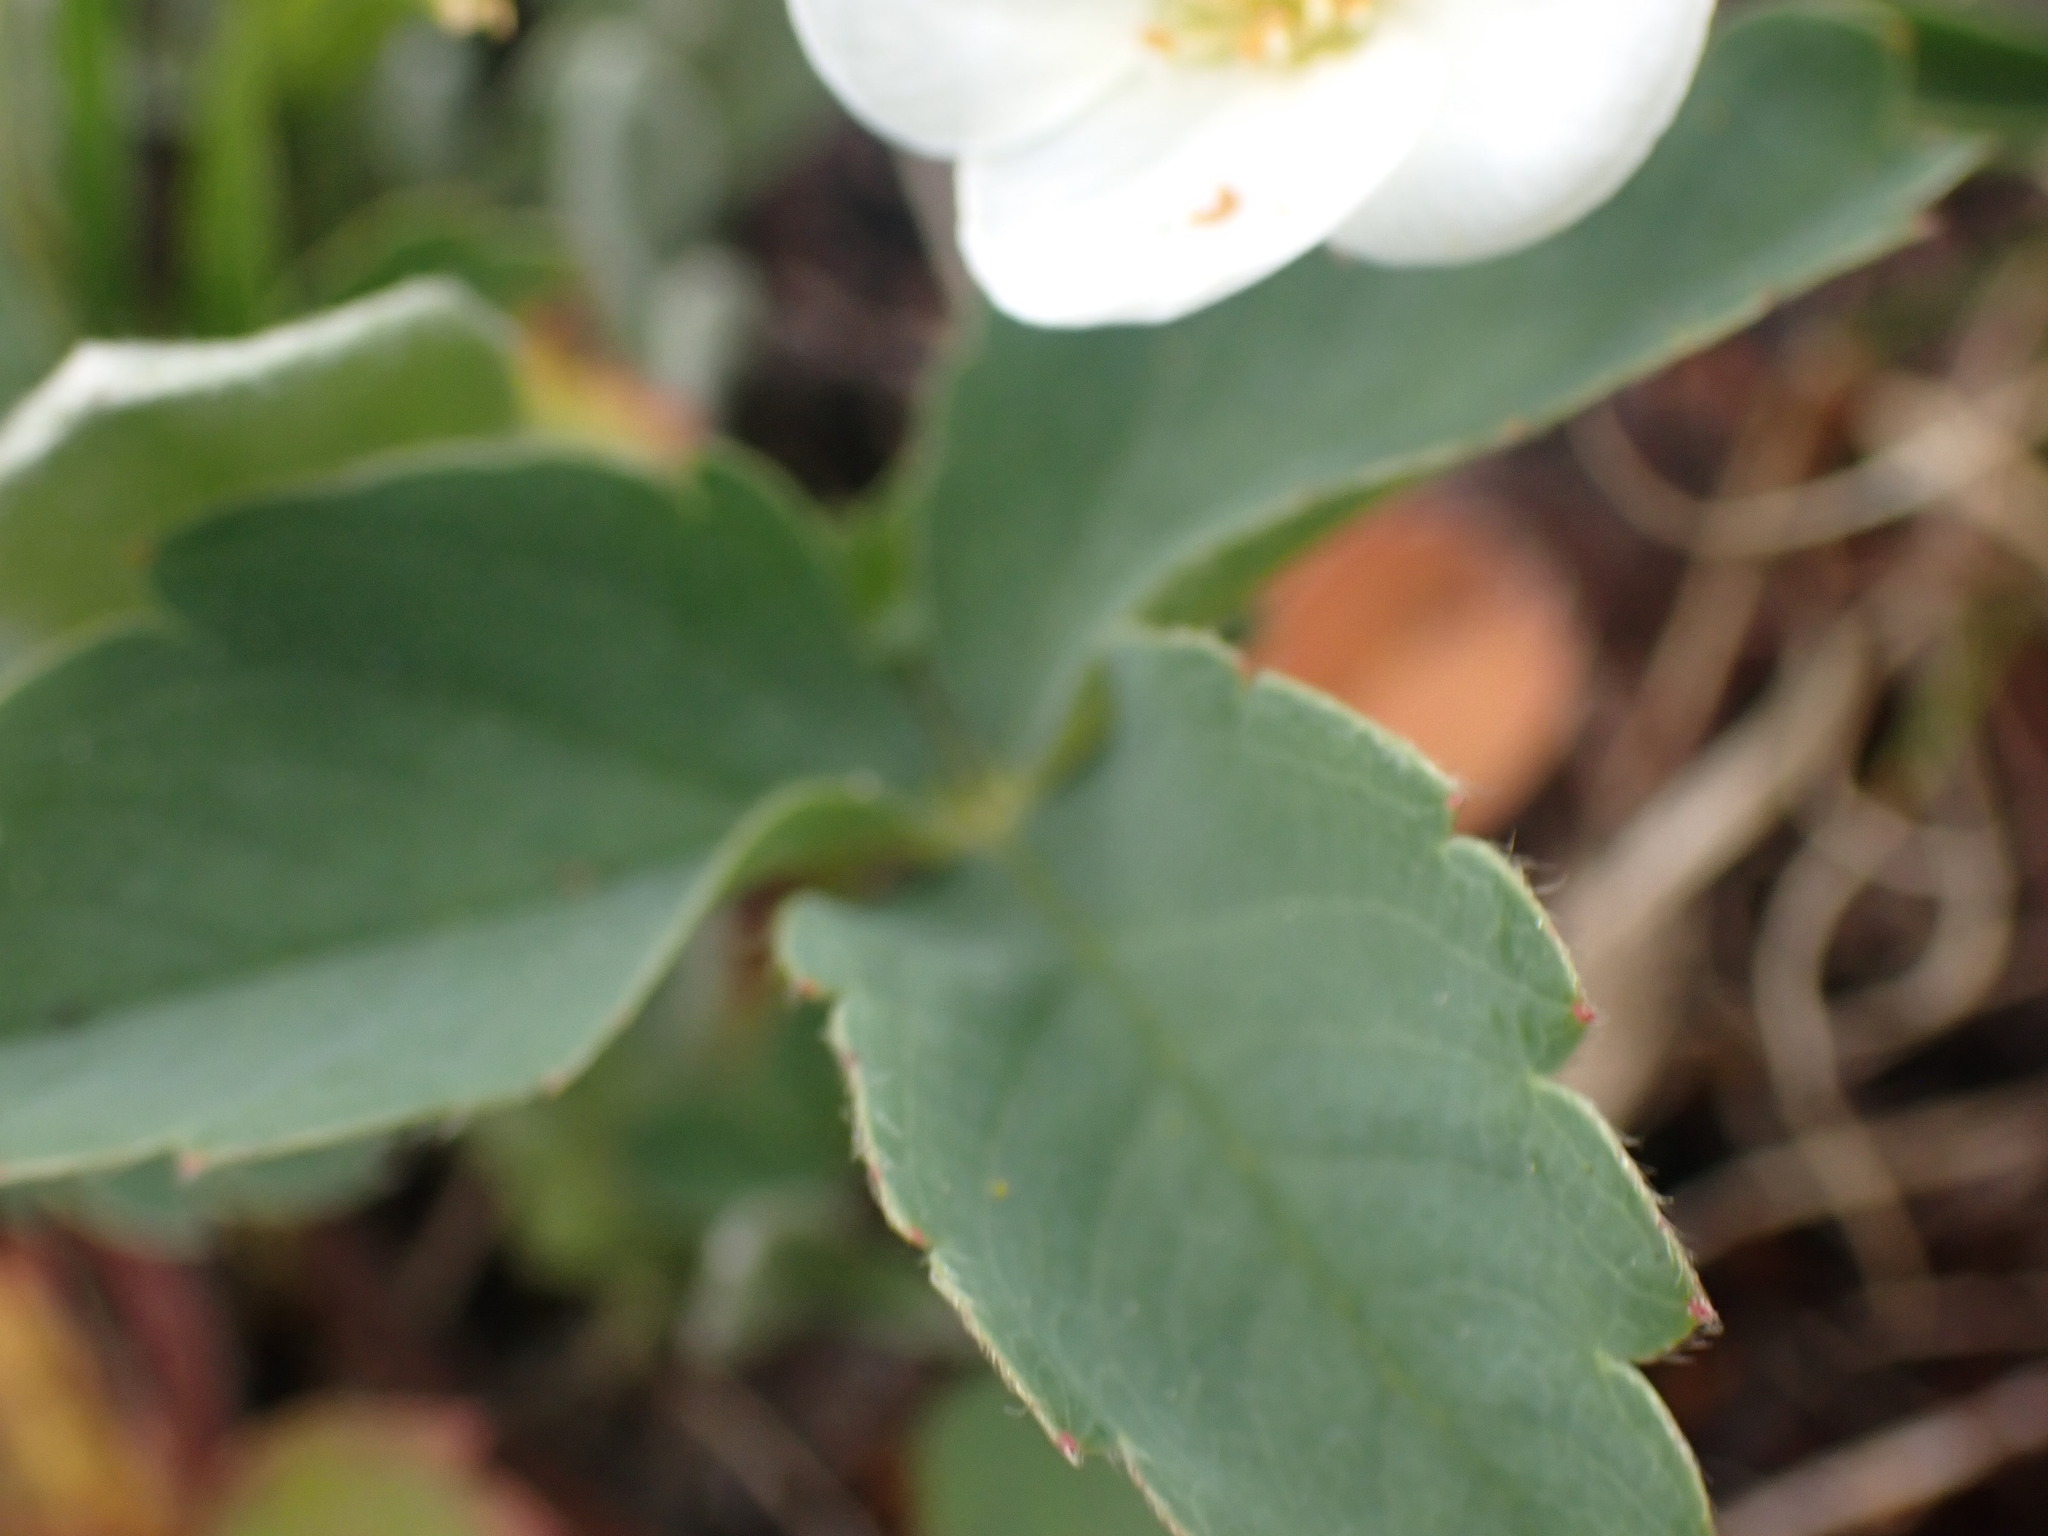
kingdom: Plantae
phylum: Tracheophyta
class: Magnoliopsida
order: Rosales
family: Rosaceae
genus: Fragaria
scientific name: Fragaria virginiana
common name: Thickleaved wild strawberry
